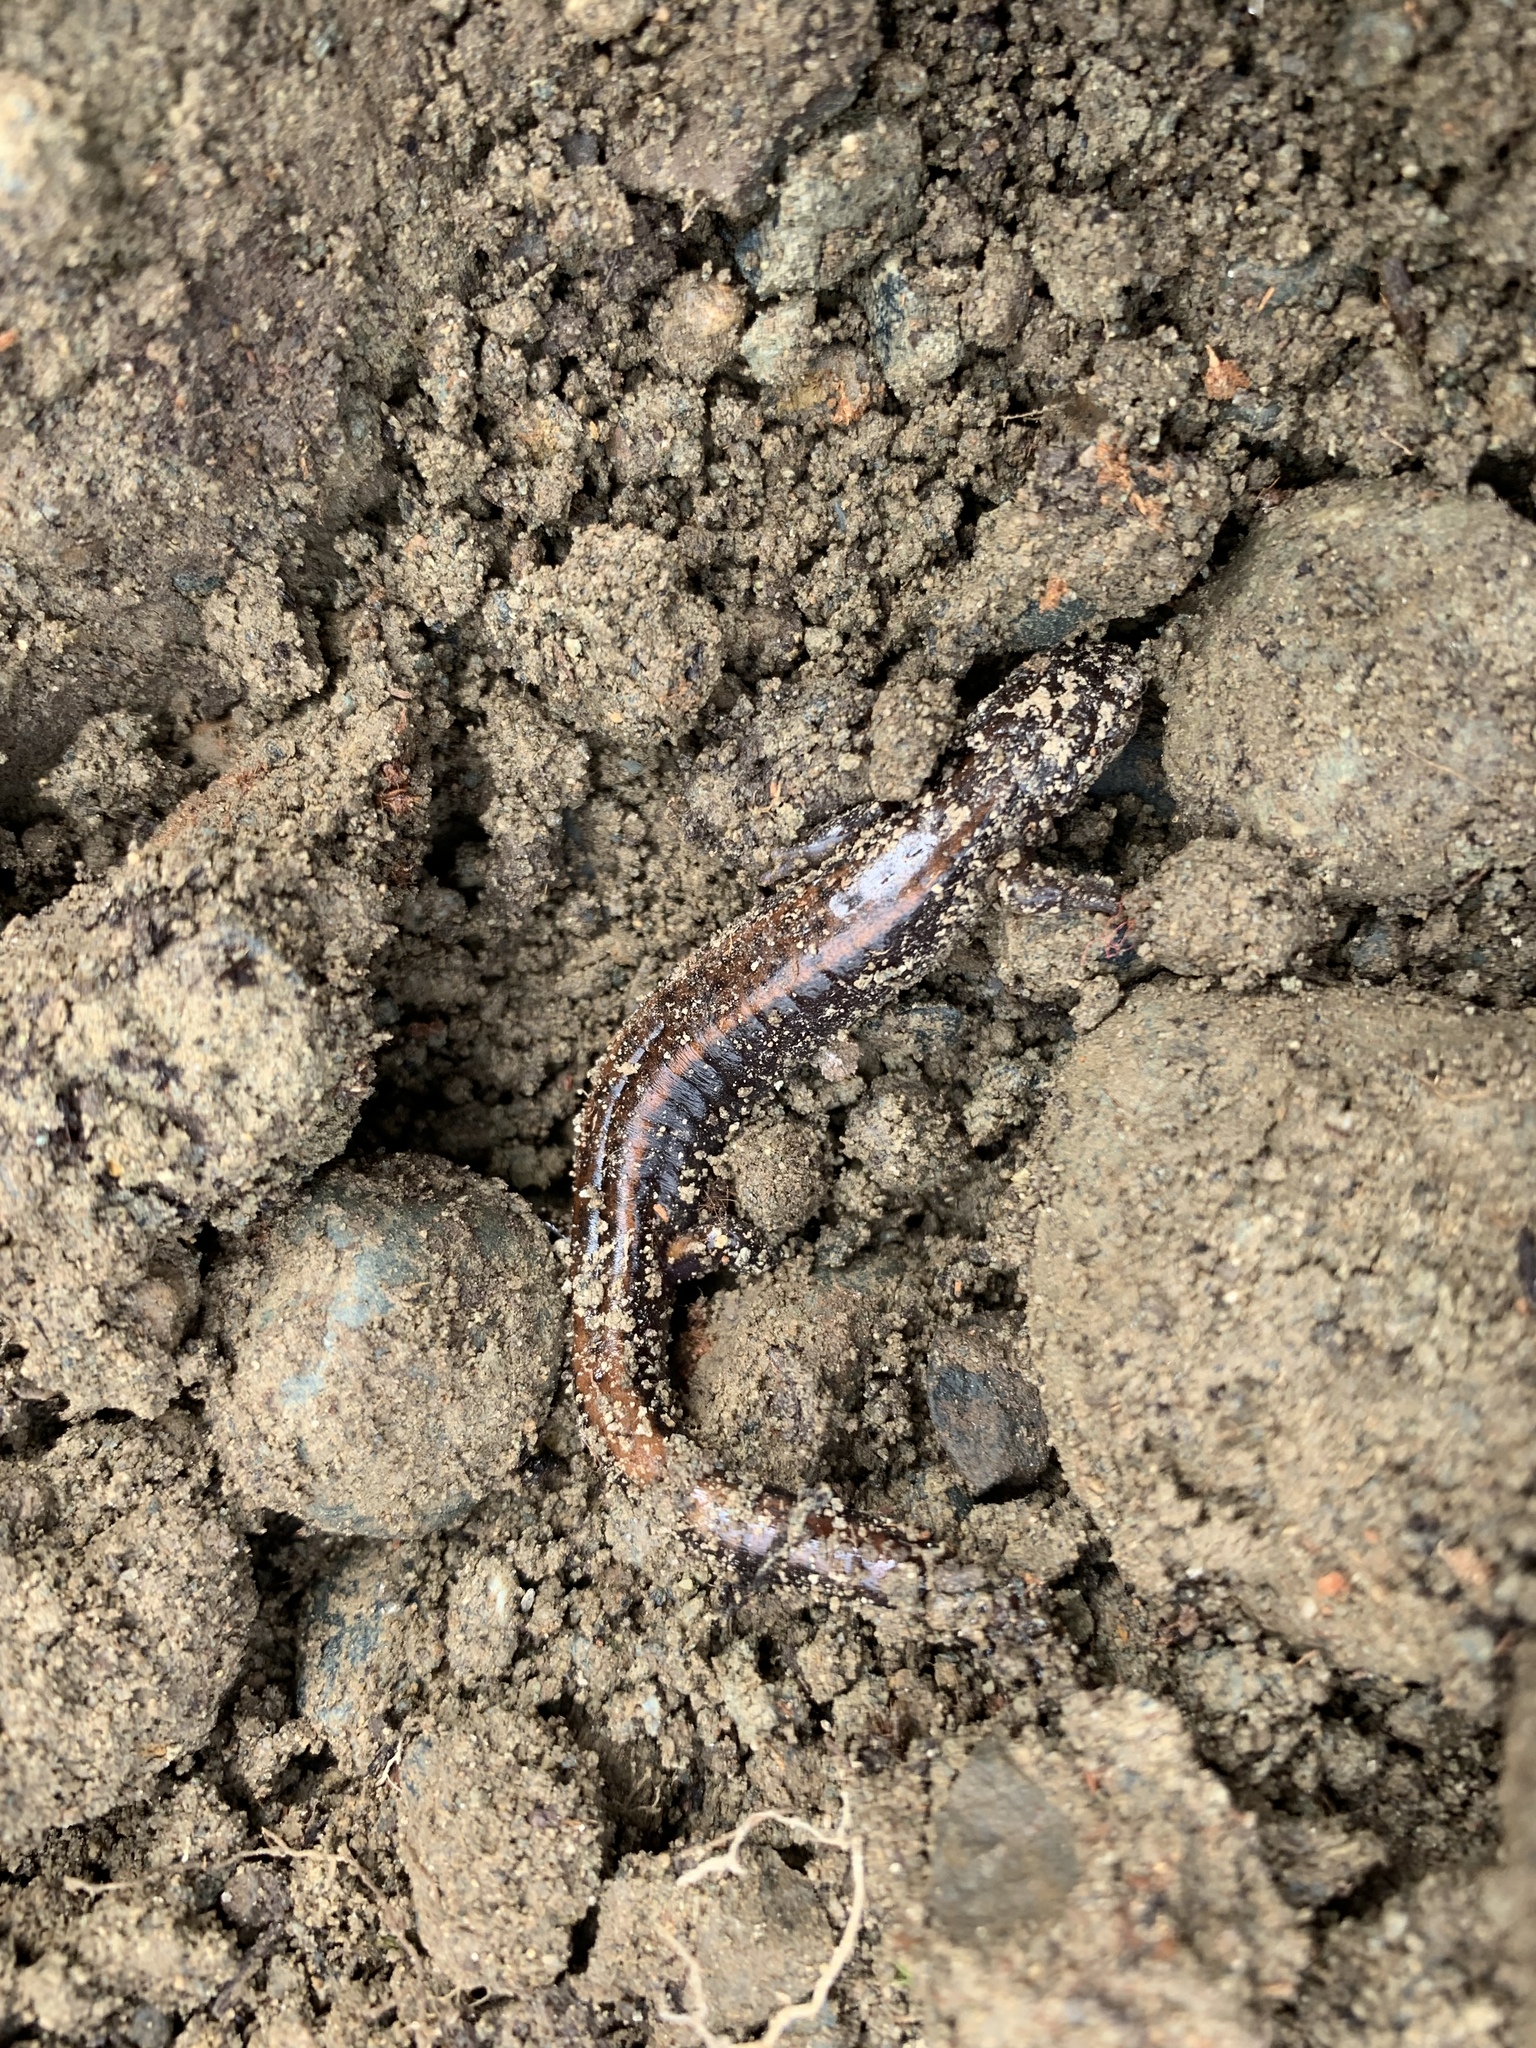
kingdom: Animalia
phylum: Chordata
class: Amphibia
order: Caudata
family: Plethodontidae
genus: Plethodon
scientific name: Plethodon vehiculum
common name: Western red-backed salamander
